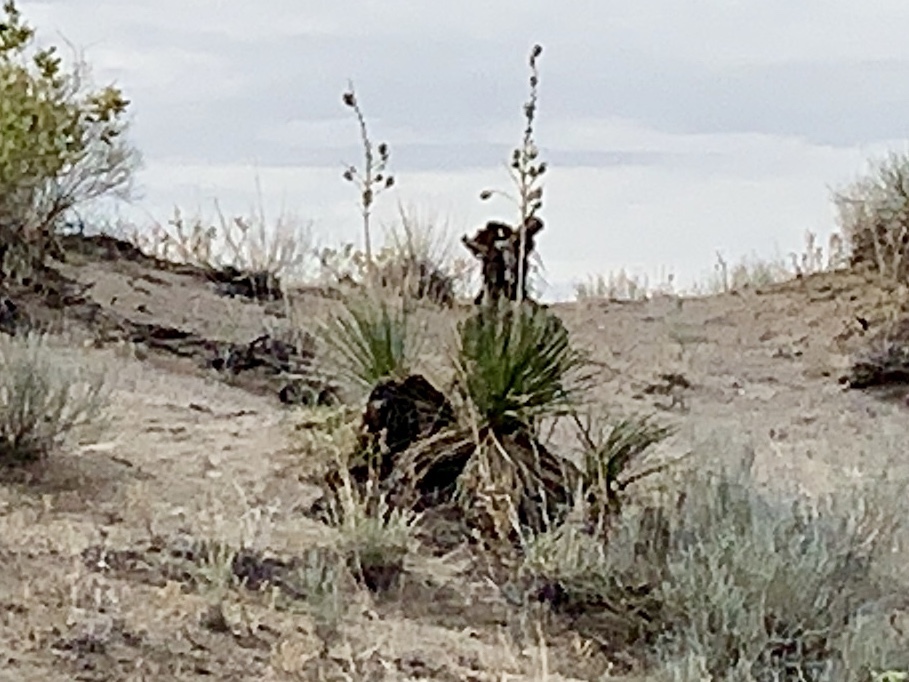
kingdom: Plantae
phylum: Tracheophyta
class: Liliopsida
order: Asparagales
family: Asparagaceae
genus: Yucca
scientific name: Yucca elata
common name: Palmella
